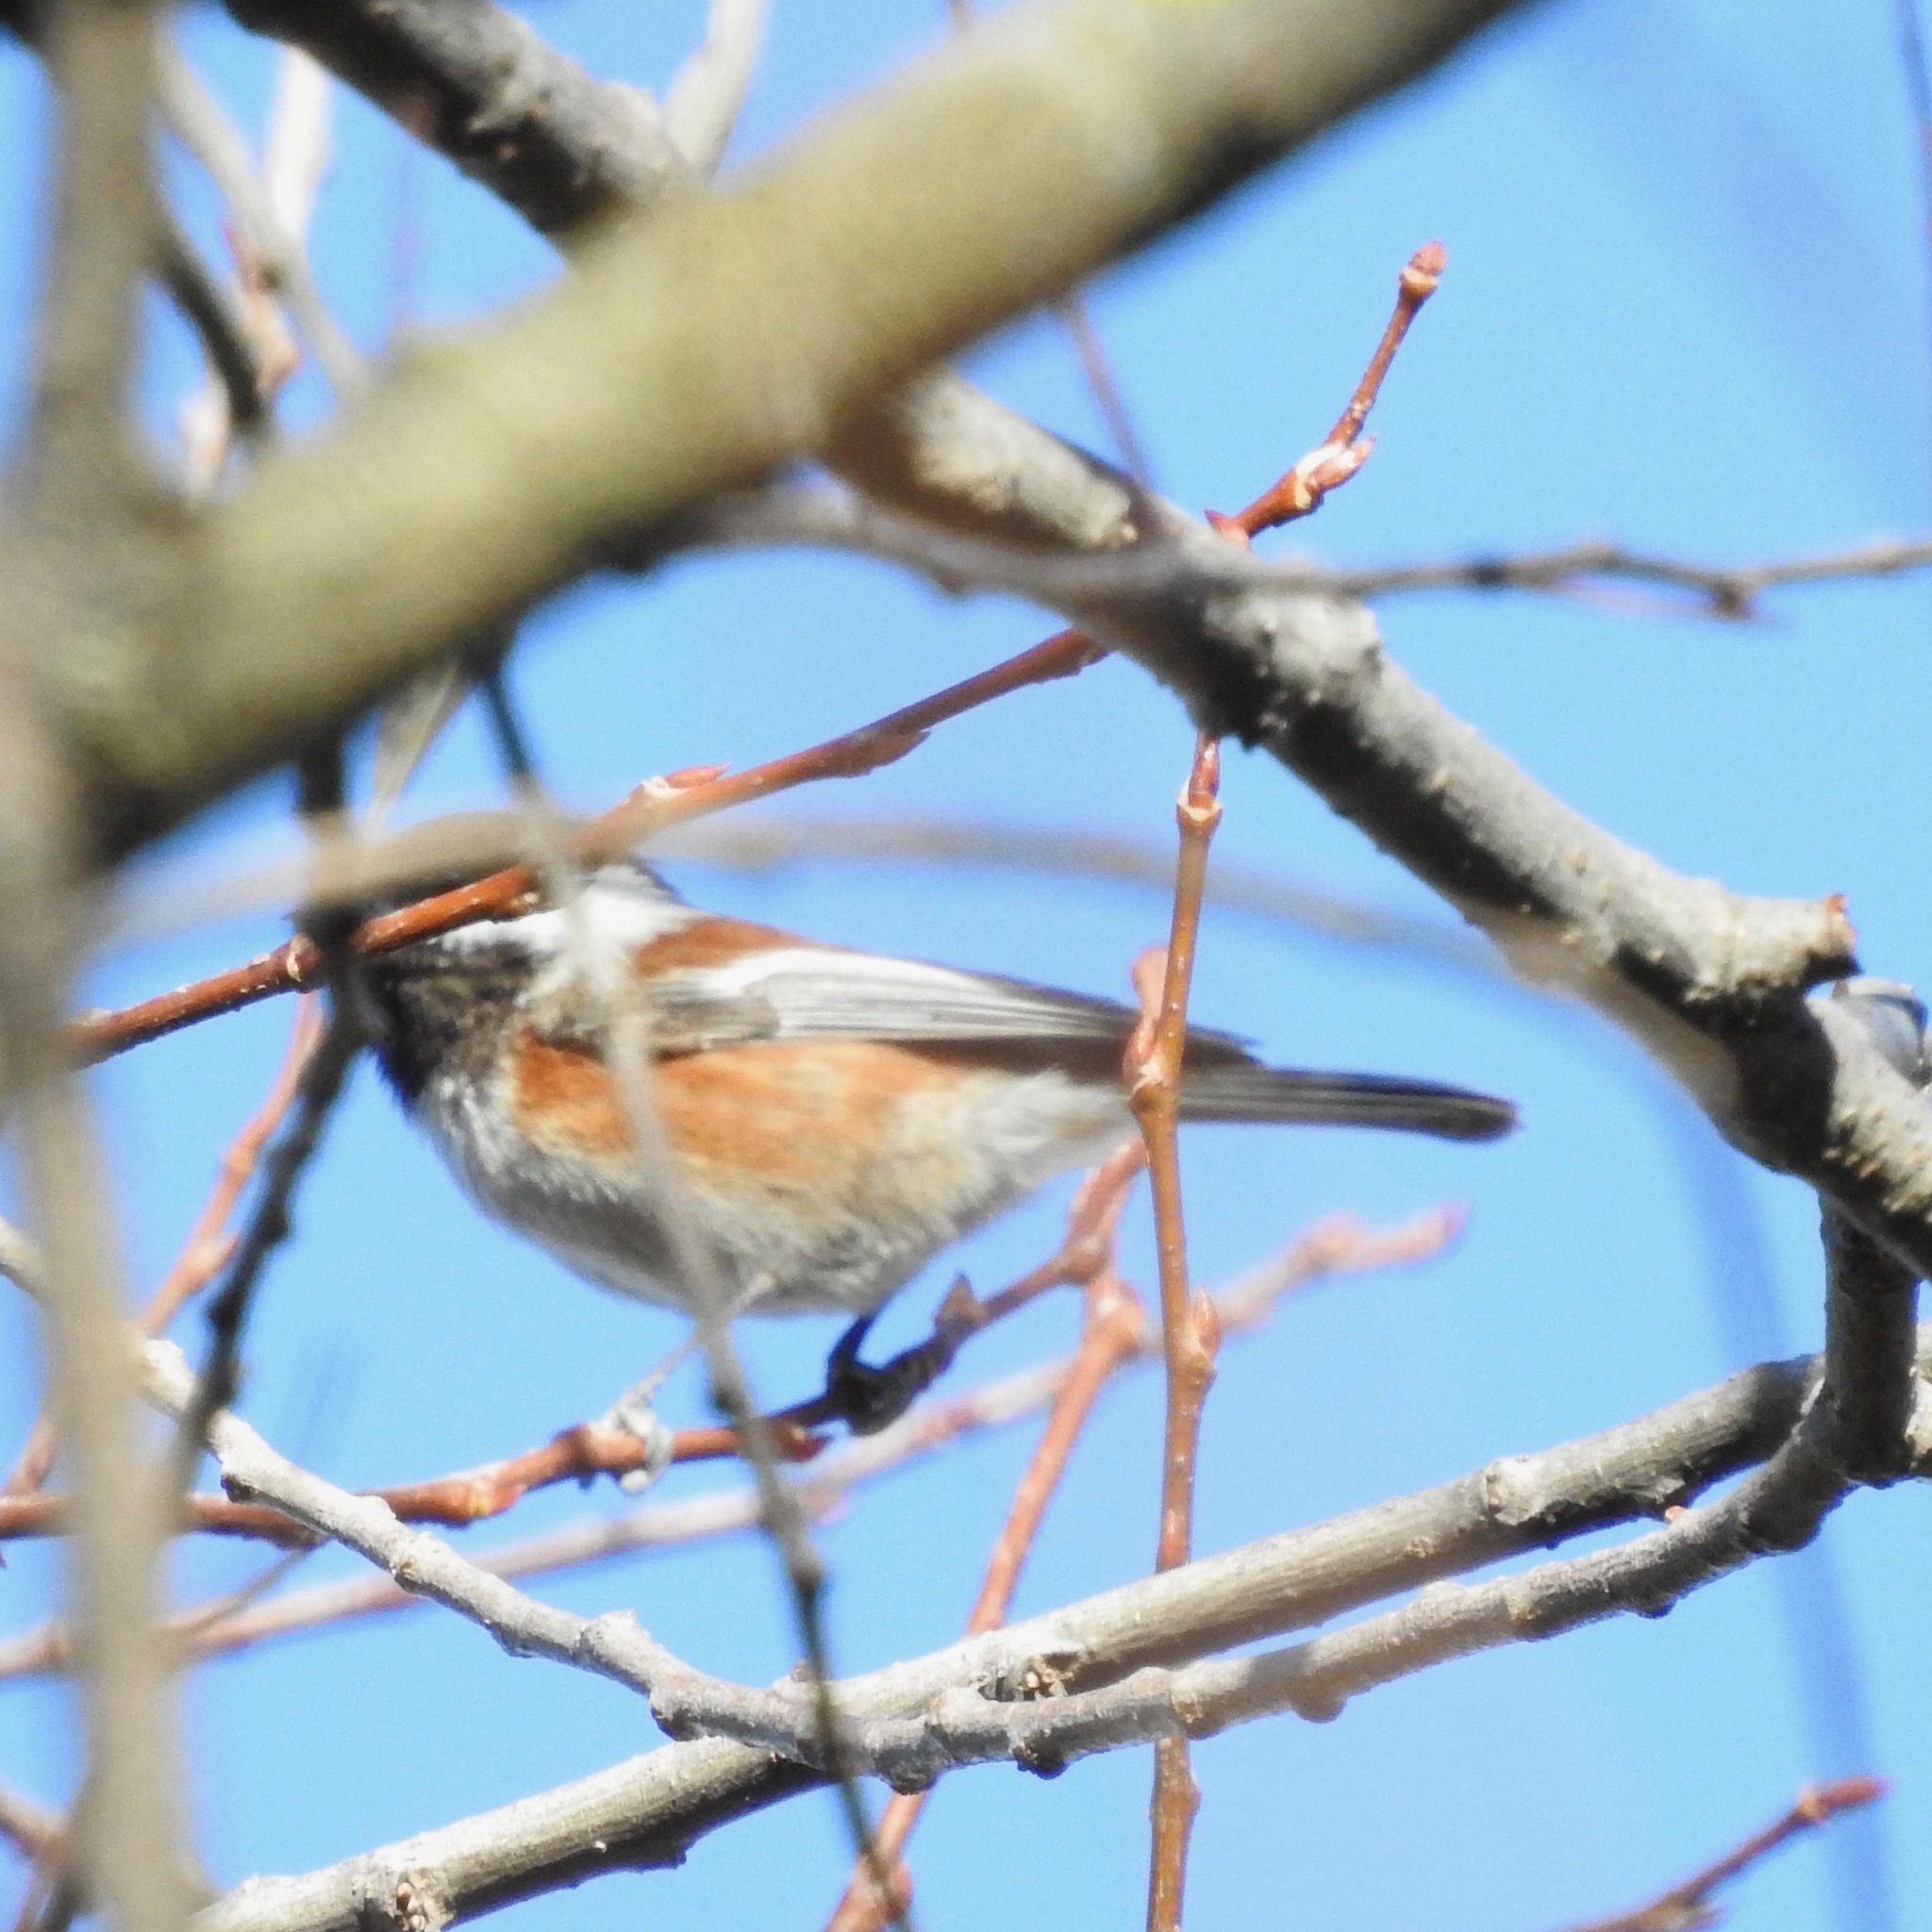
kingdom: Animalia
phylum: Chordata
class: Aves
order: Passeriformes
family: Paridae
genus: Poecile
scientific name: Poecile rufescens
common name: Chestnut-backed chickadee
